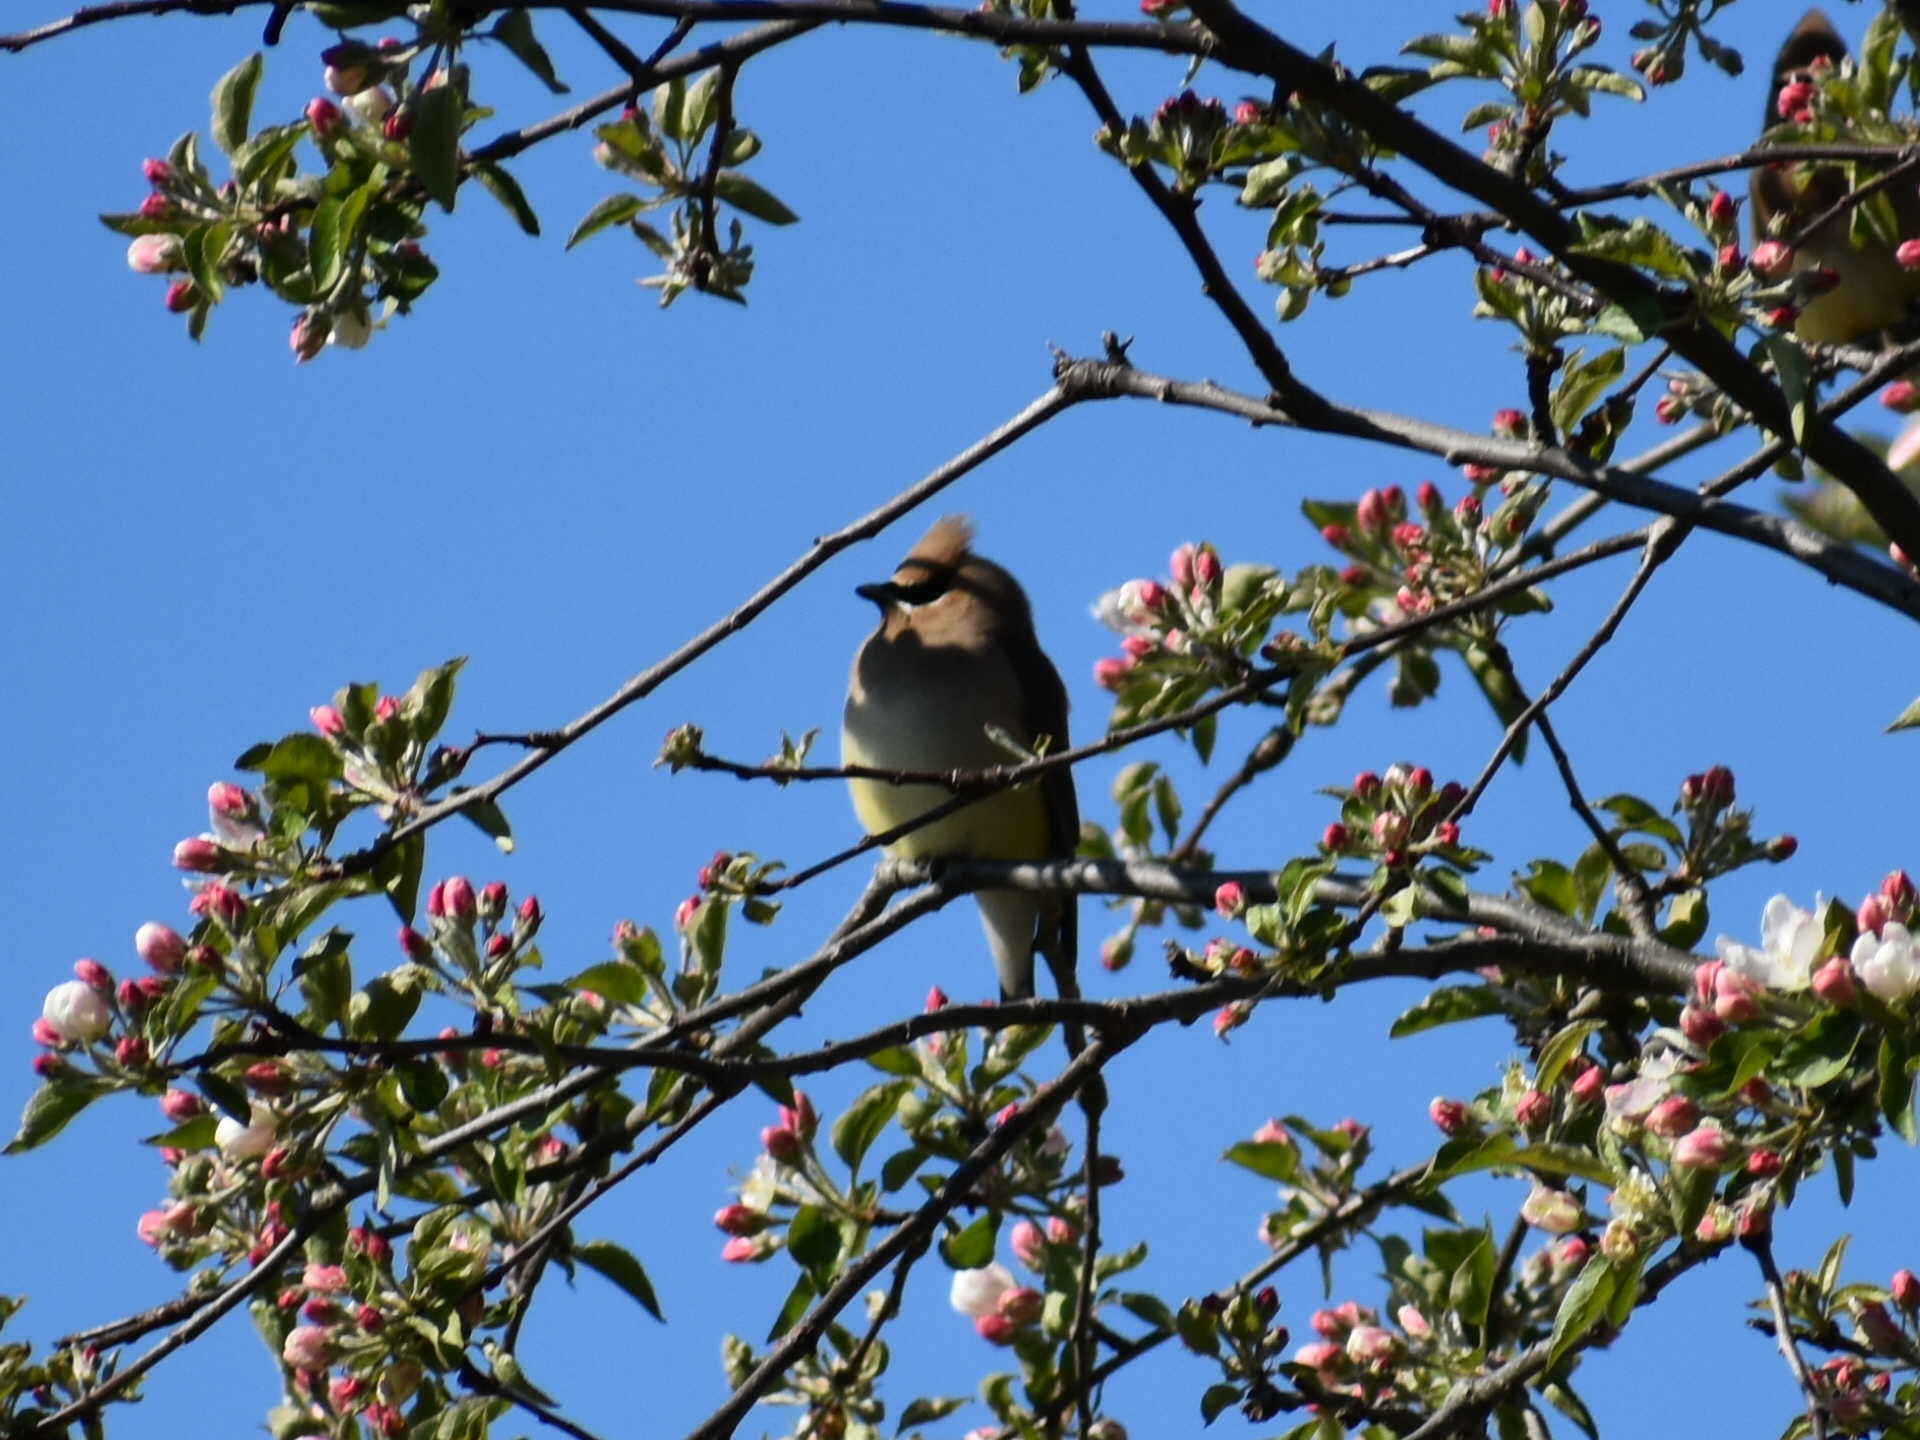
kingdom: Animalia
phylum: Chordata
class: Aves
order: Passeriformes
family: Bombycillidae
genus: Bombycilla
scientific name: Bombycilla cedrorum
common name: Cedar waxwing
